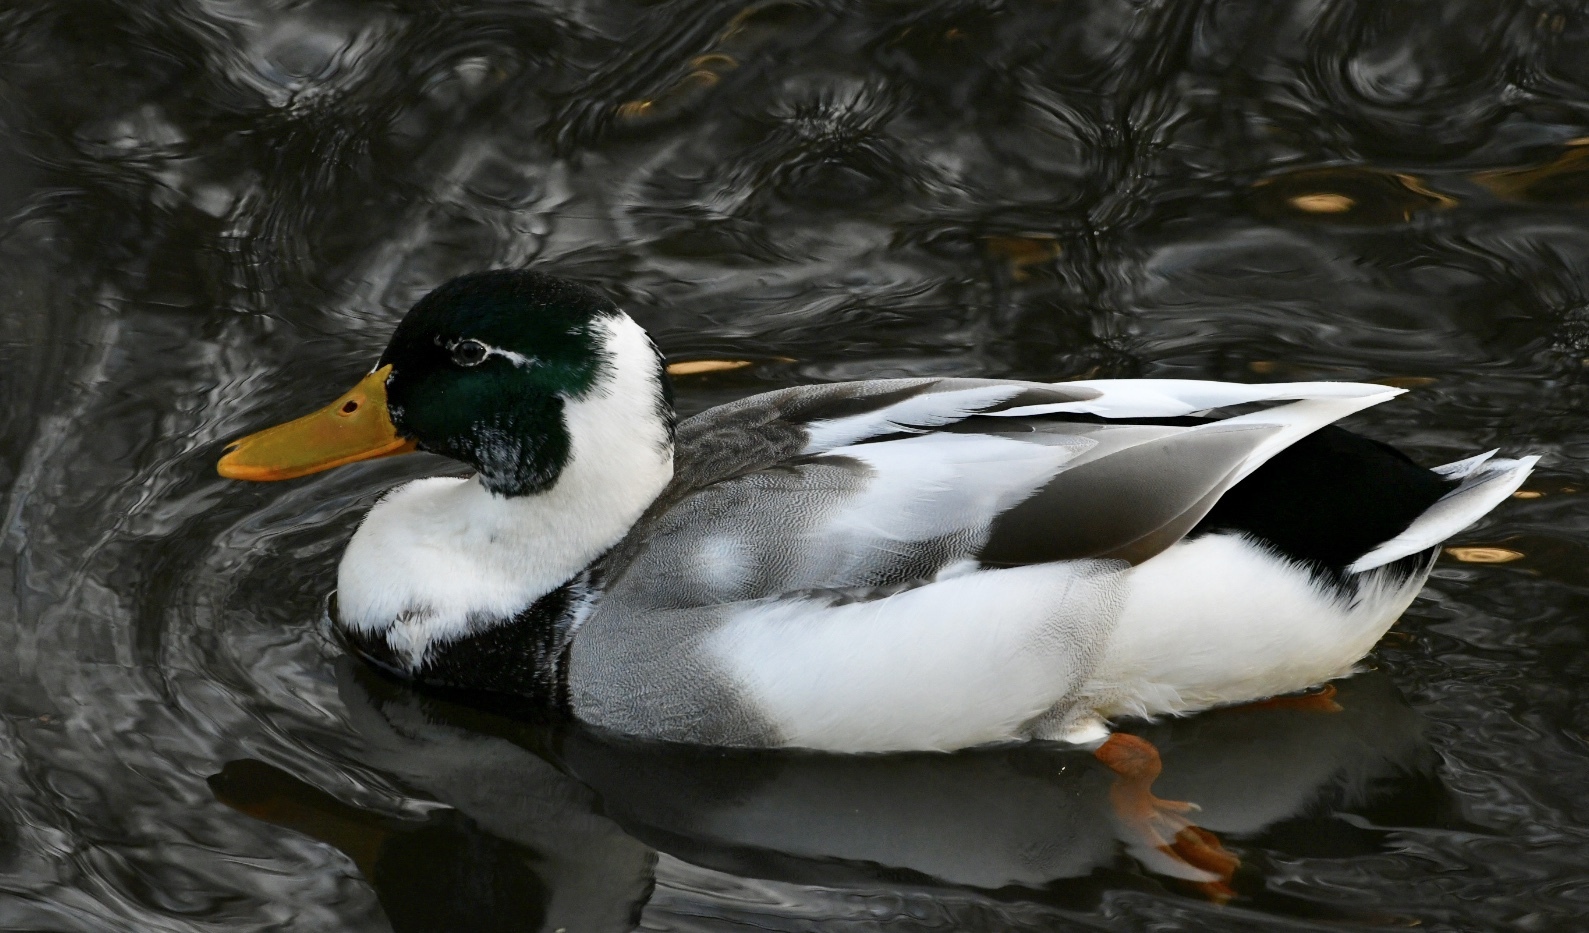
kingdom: Animalia
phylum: Chordata
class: Aves
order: Anseriformes
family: Anatidae
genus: Anas
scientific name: Anas platyrhynchos
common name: Mallard
